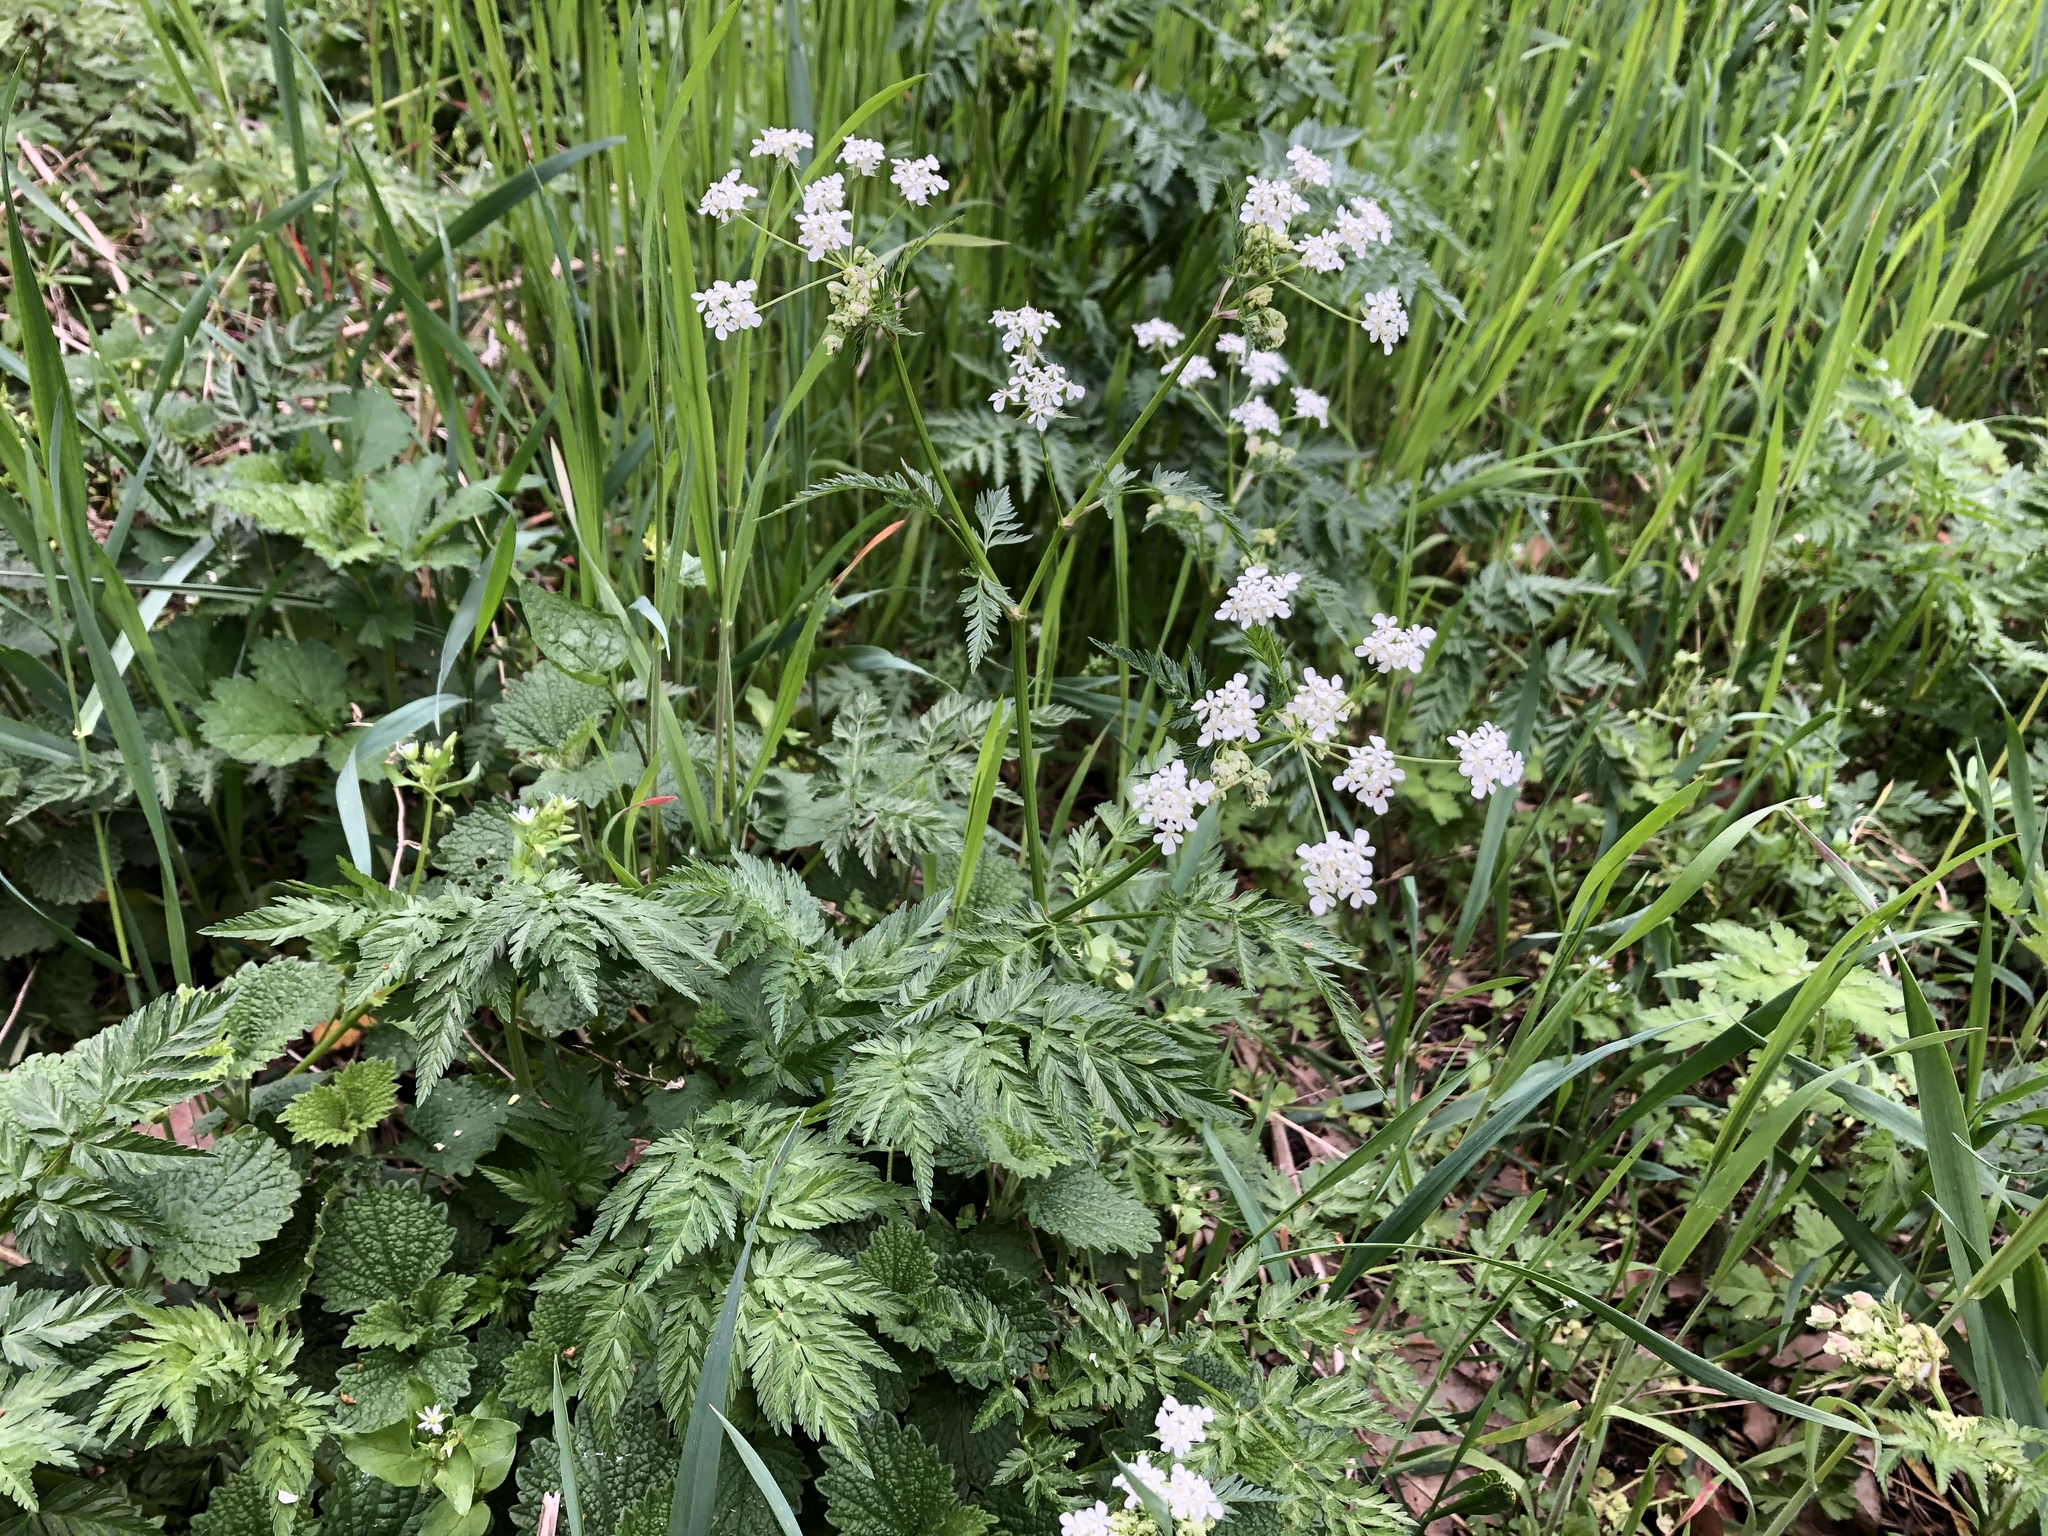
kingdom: Plantae
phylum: Tracheophyta
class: Magnoliopsida
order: Apiales
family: Apiaceae
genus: Anthriscus
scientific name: Anthriscus sylvestris
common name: Cow parsley
